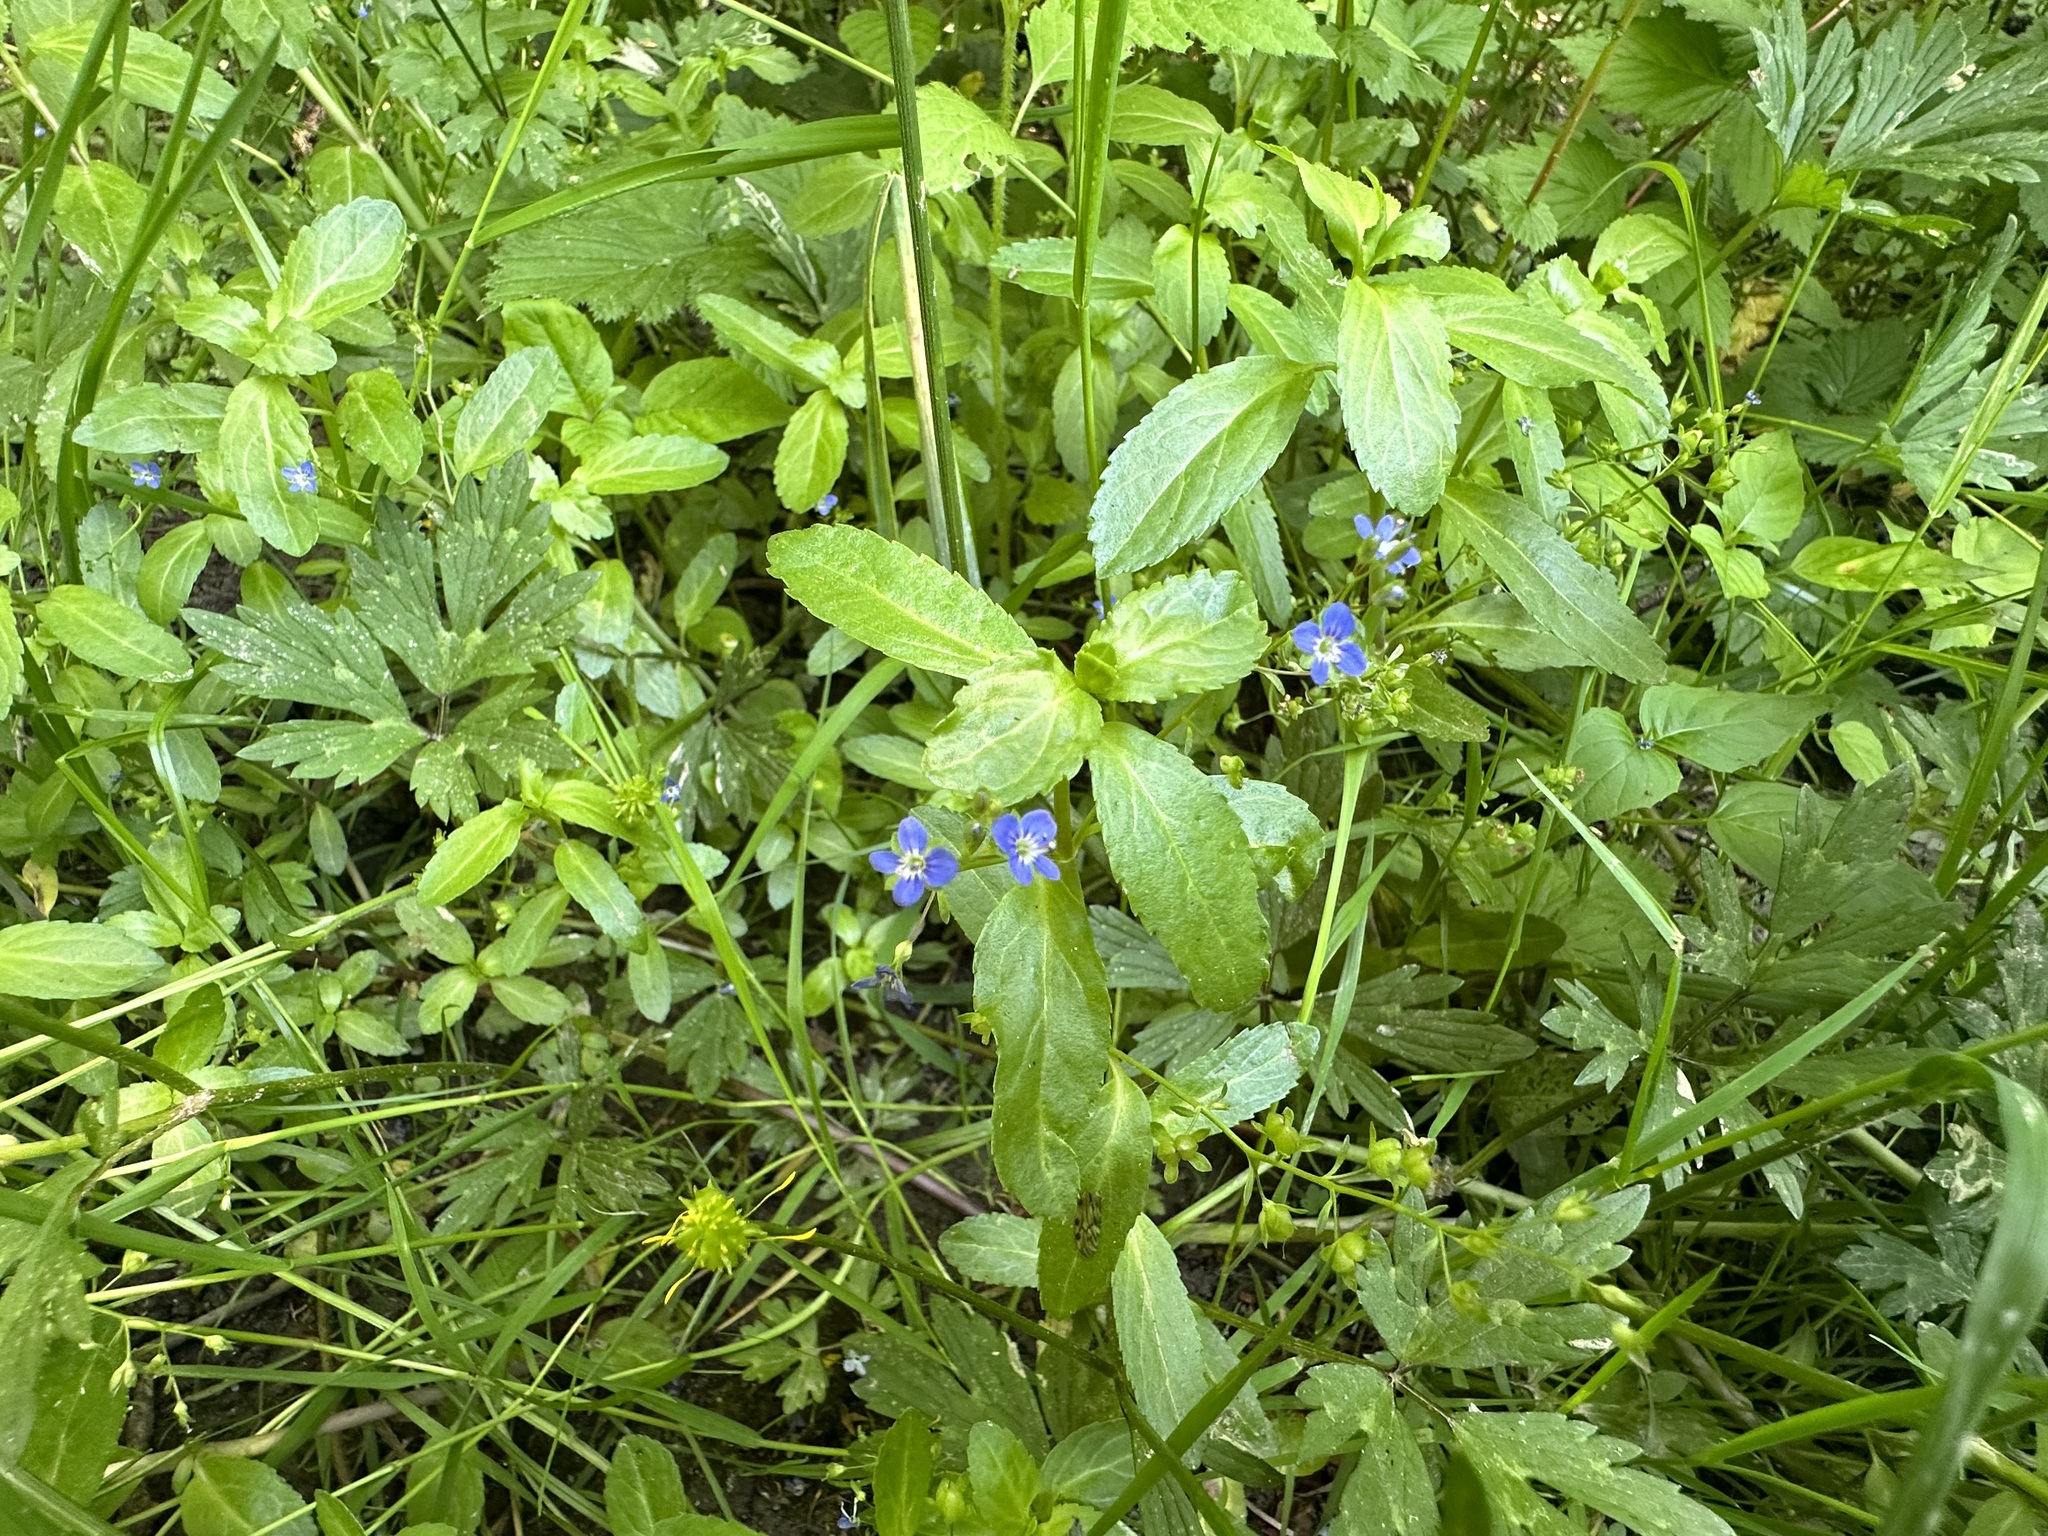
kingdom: Plantae
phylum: Tracheophyta
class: Magnoliopsida
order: Lamiales
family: Plantaginaceae
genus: Veronica
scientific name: Veronica beccabunga
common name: Brooklime
